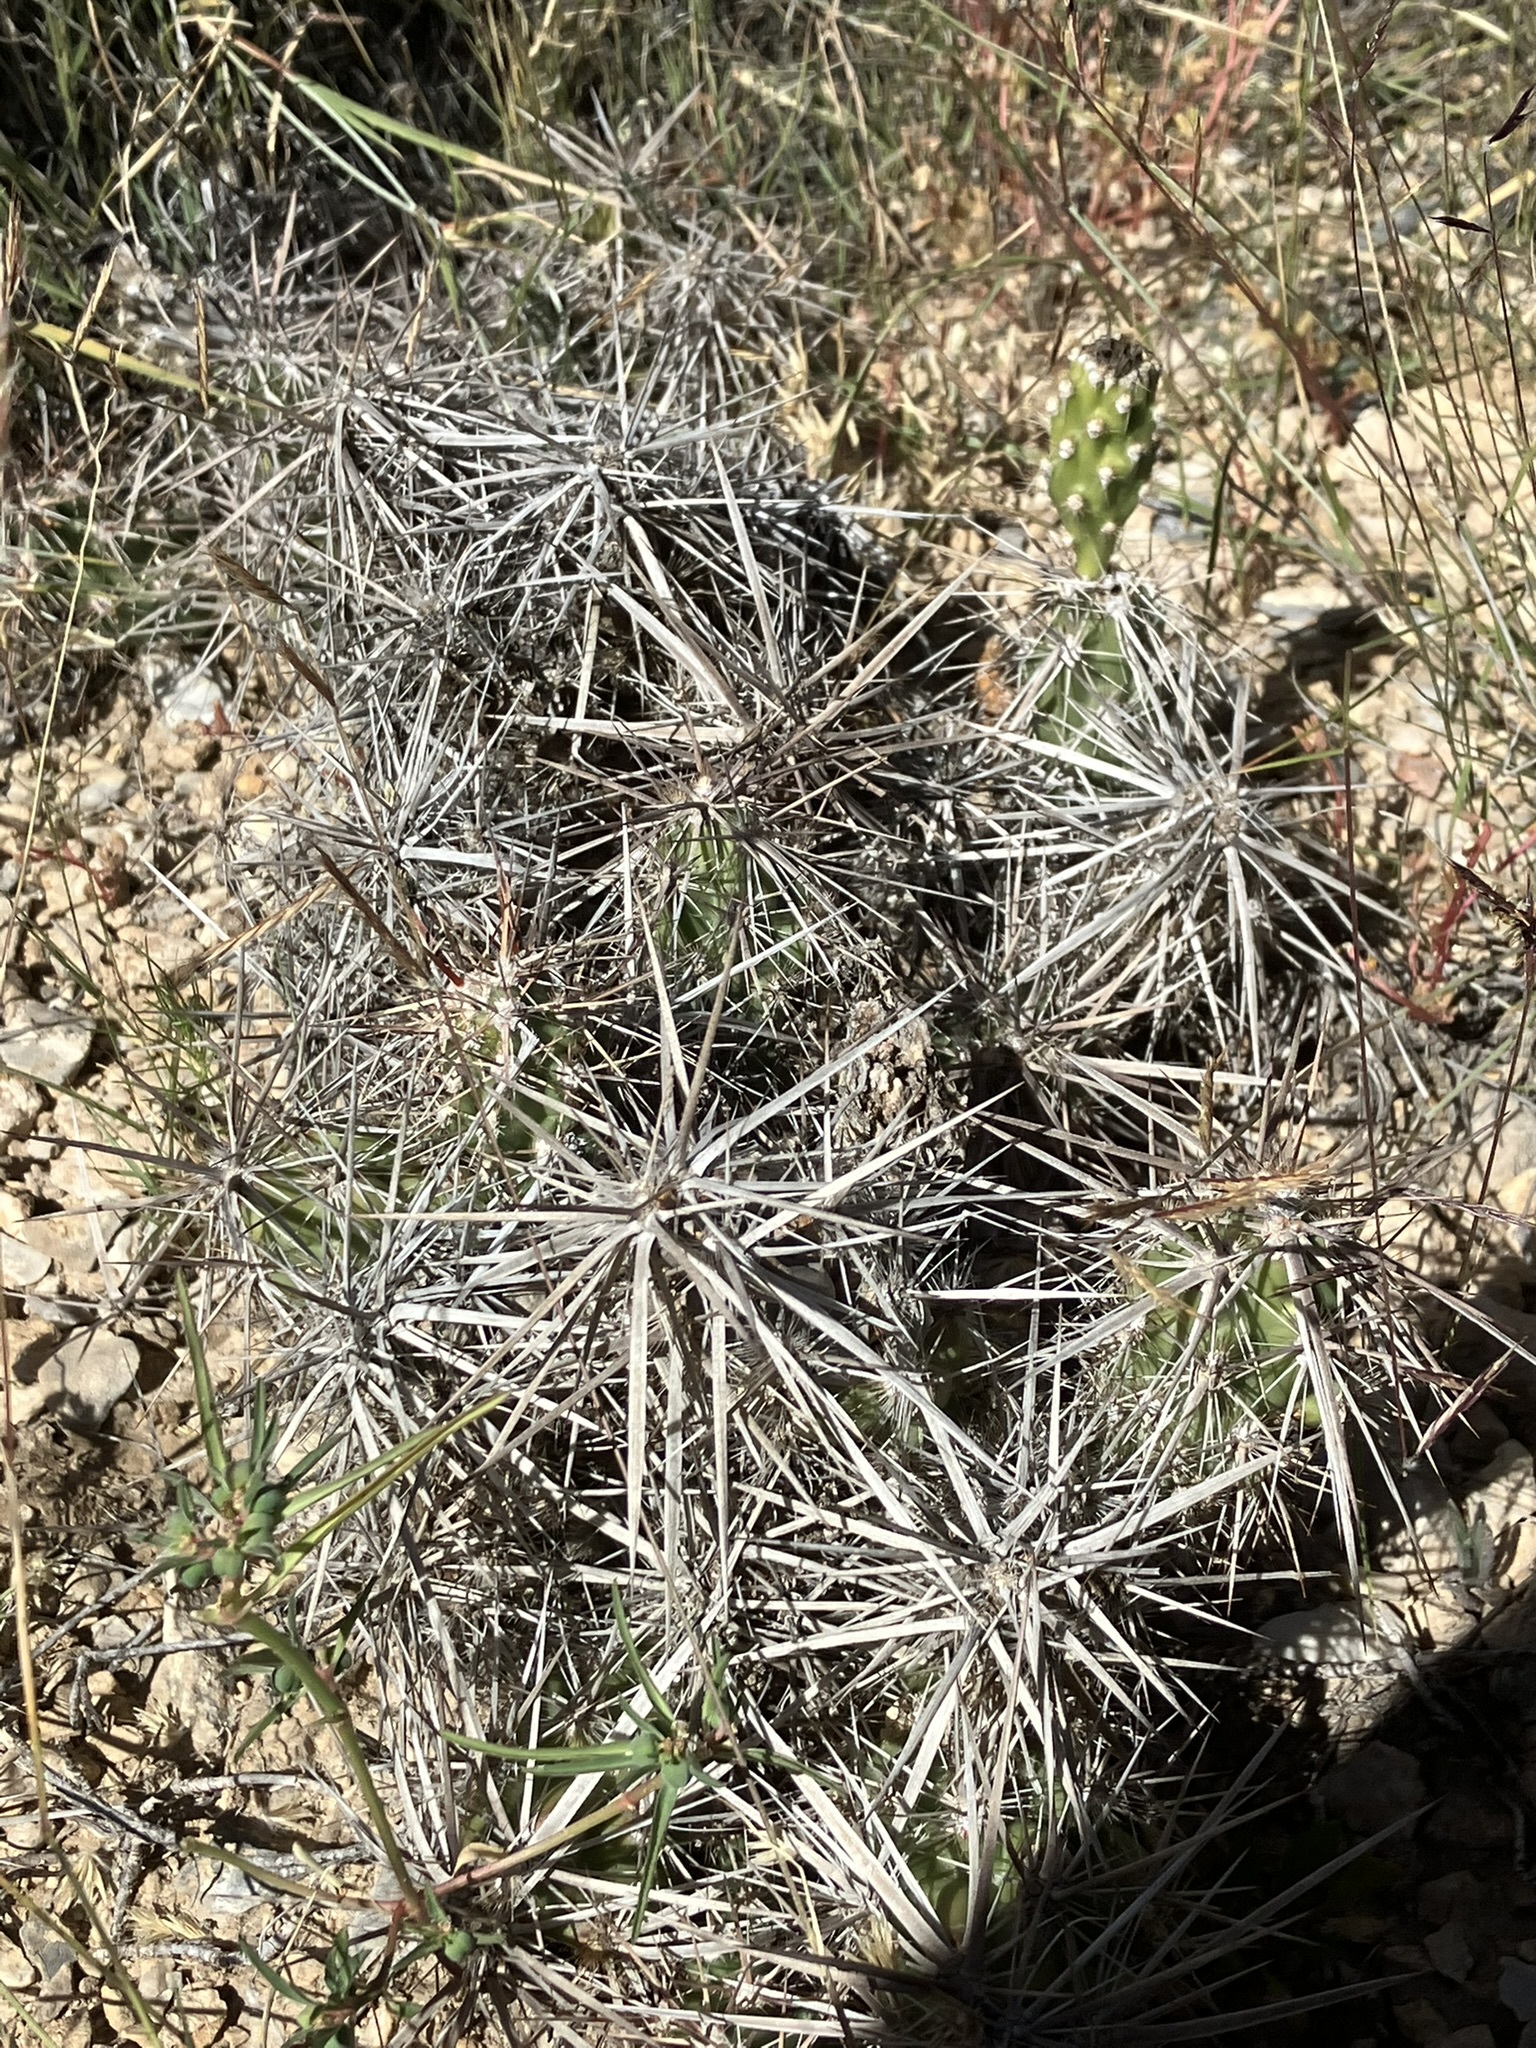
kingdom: Plantae
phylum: Tracheophyta
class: Magnoliopsida
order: Caryophyllales
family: Cactaceae
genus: Grusonia
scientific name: Grusonia parishiorum
